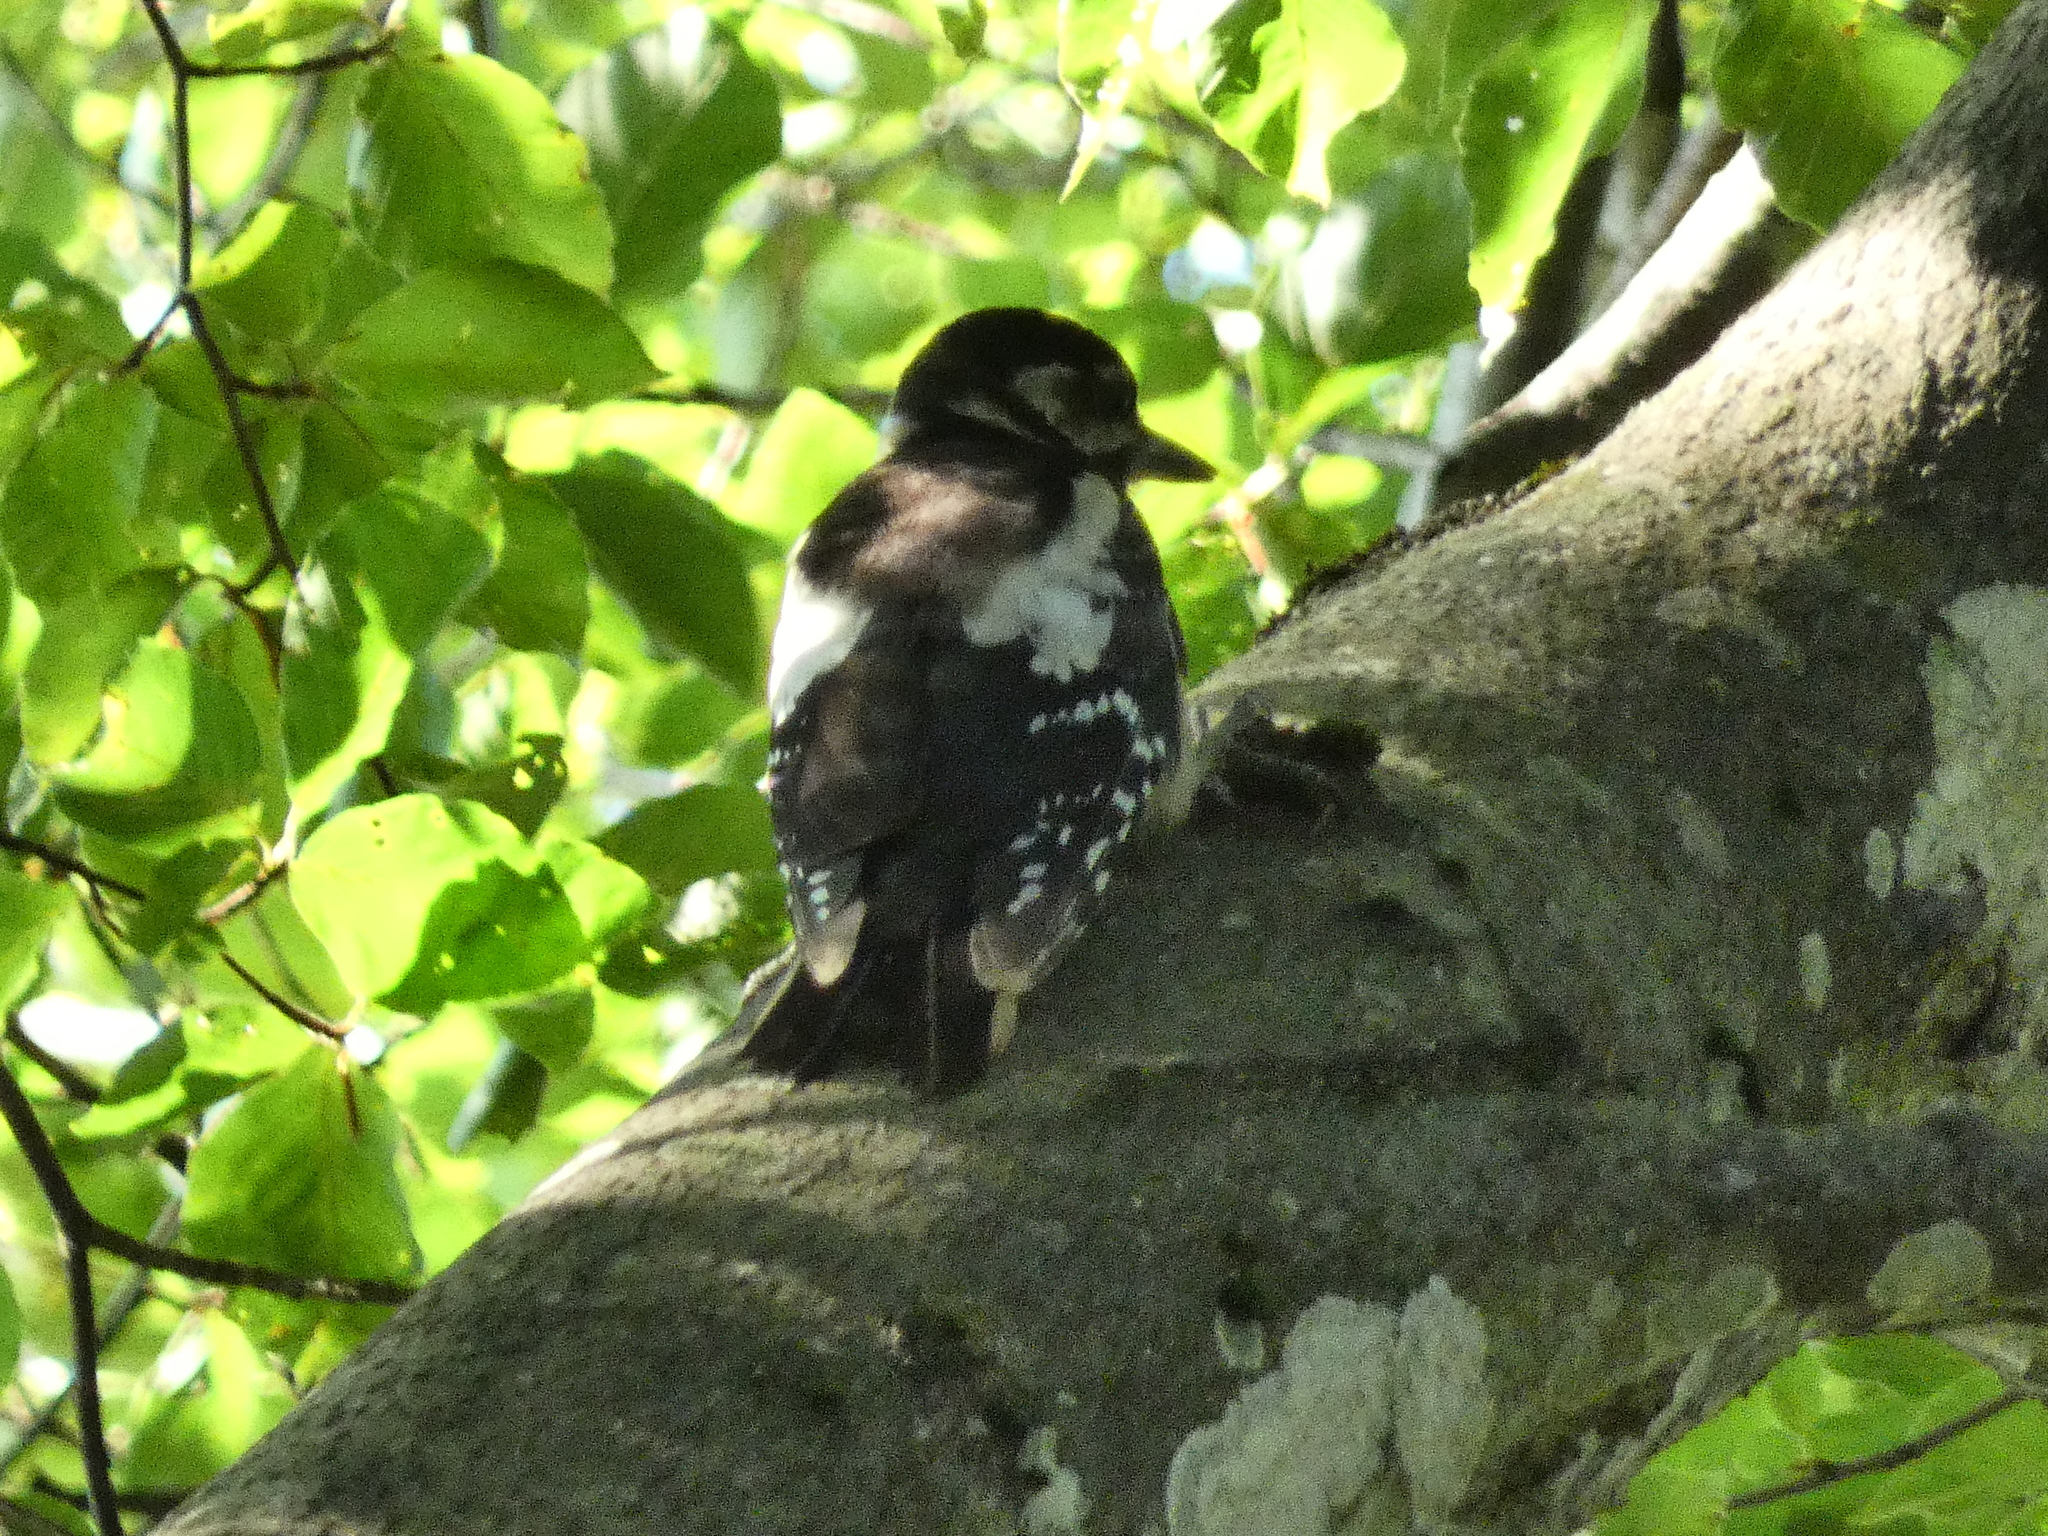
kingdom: Animalia
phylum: Chordata
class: Aves
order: Piciformes
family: Picidae
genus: Dendrocopos
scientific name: Dendrocopos major
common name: Great spotted woodpecker
